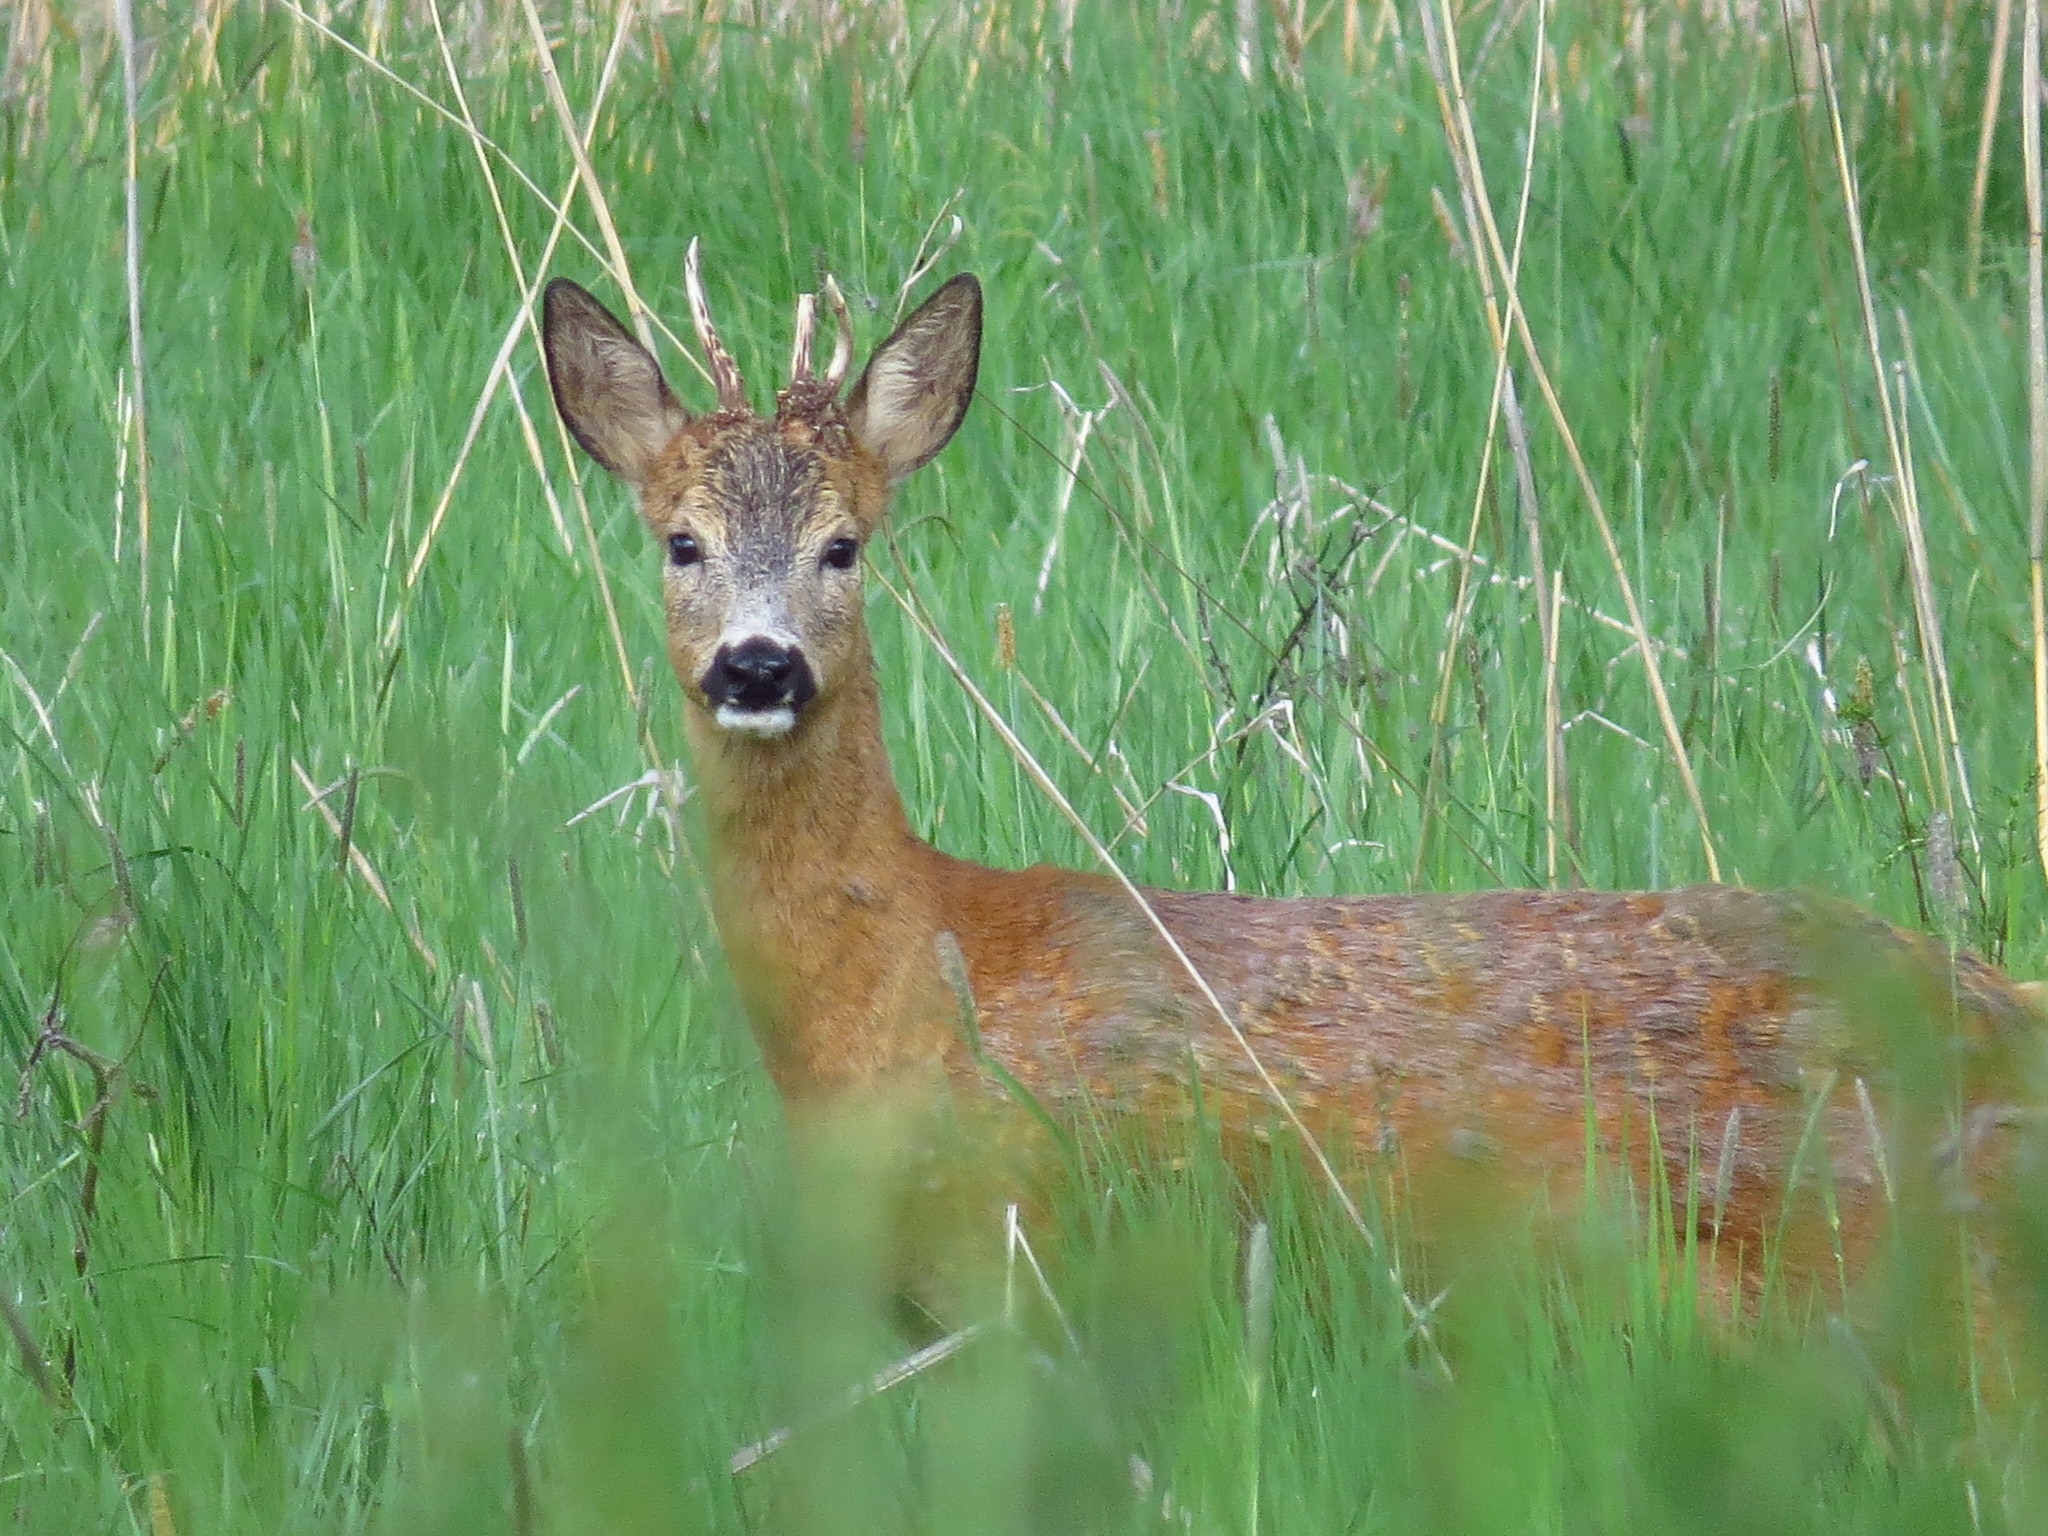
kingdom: Animalia
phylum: Chordata
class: Mammalia
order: Artiodactyla
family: Cervidae
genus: Capreolus
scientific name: Capreolus capreolus
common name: Western roe deer
